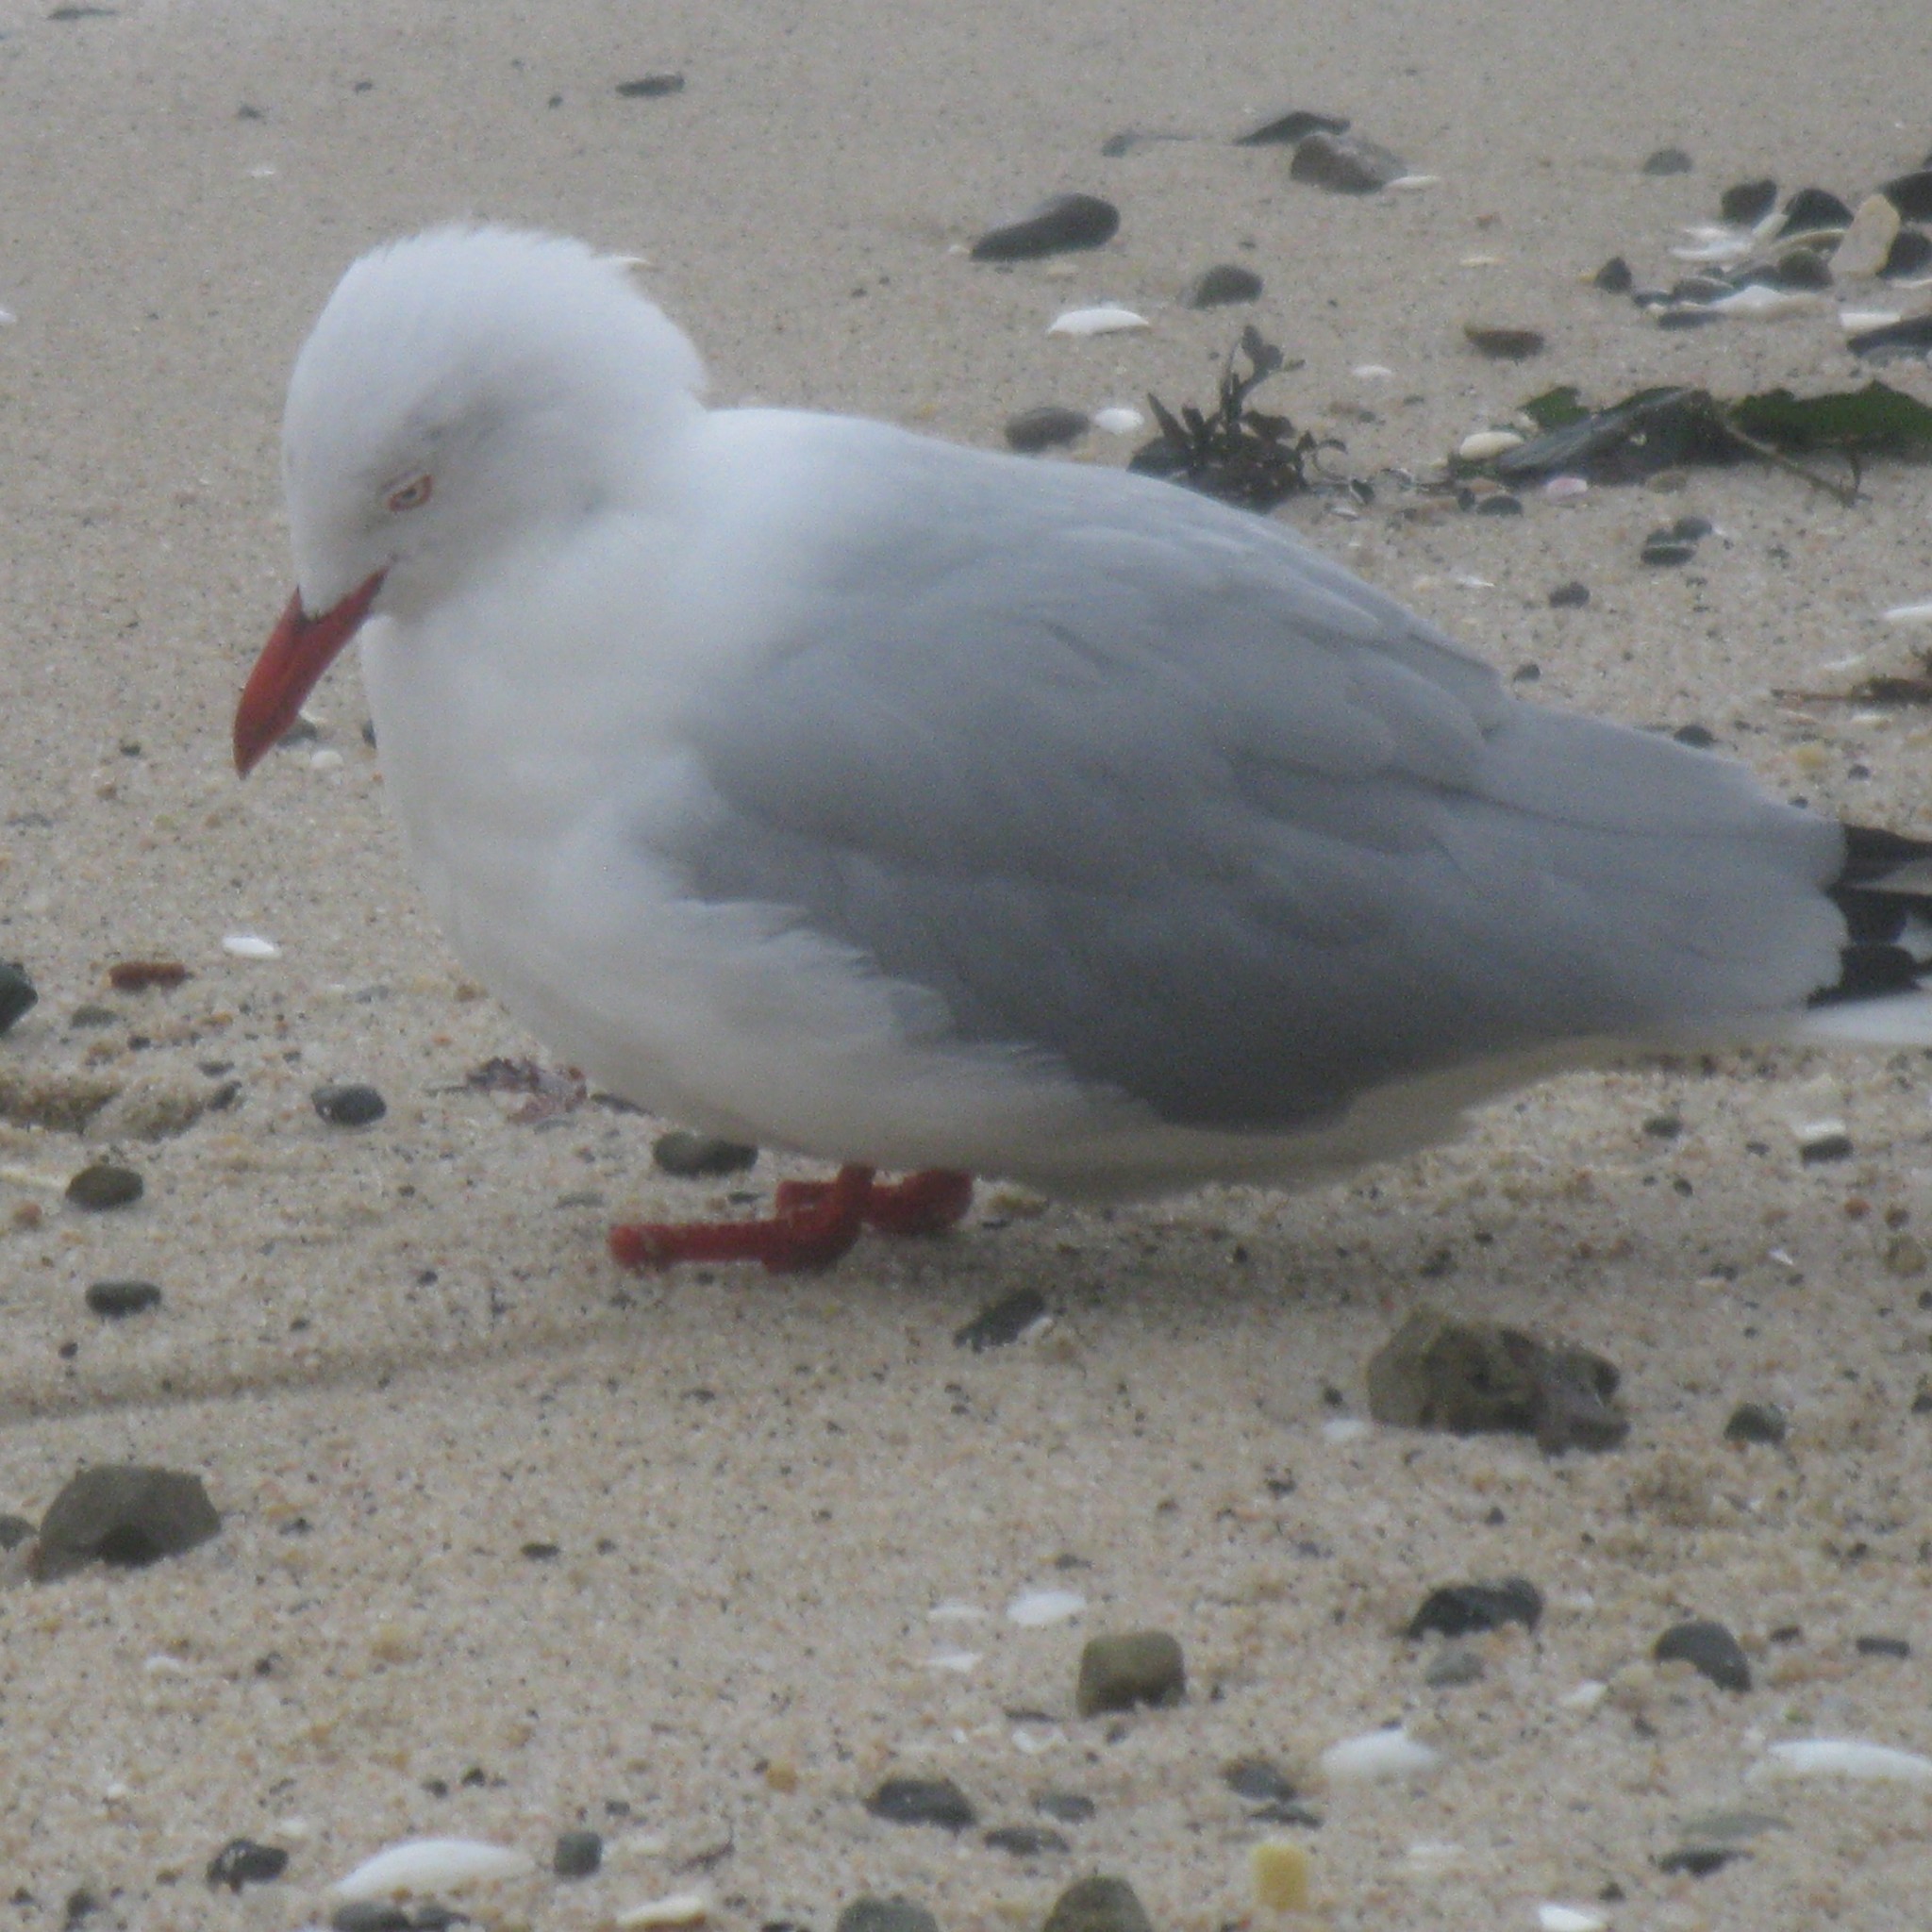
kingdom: Animalia
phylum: Chordata
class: Aves
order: Charadriiformes
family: Laridae
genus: Chroicocephalus
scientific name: Chroicocephalus novaehollandiae
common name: Silver gull
